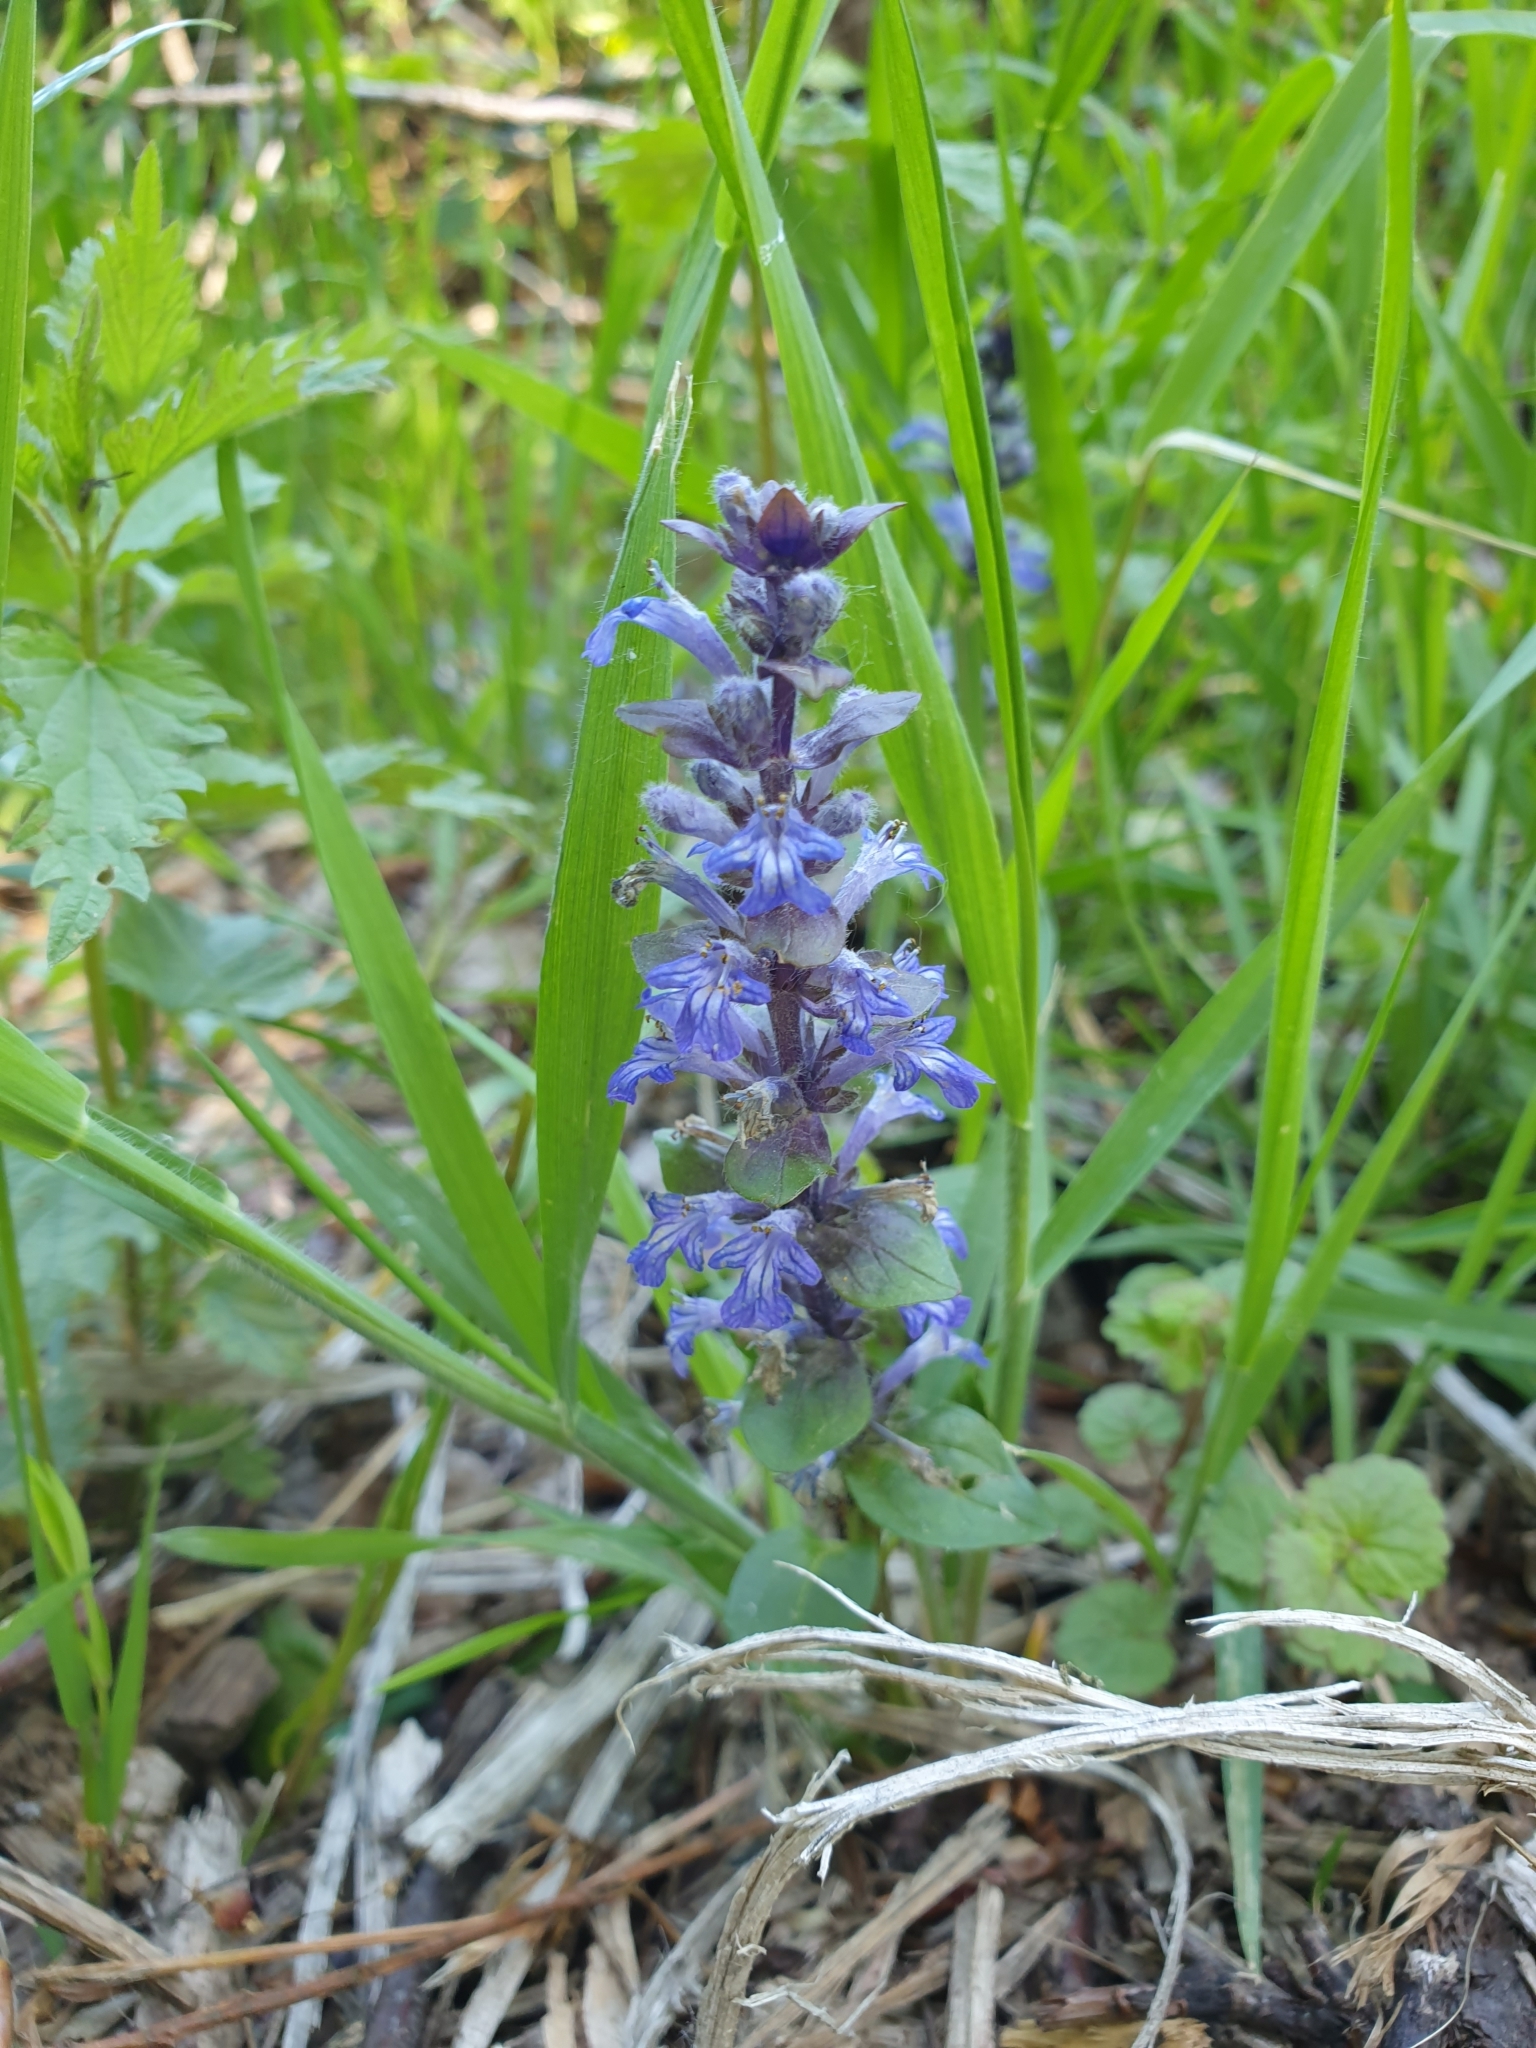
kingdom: Plantae
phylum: Tracheophyta
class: Magnoliopsida
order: Lamiales
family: Lamiaceae
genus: Ajuga
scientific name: Ajuga reptans
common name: Bugle
